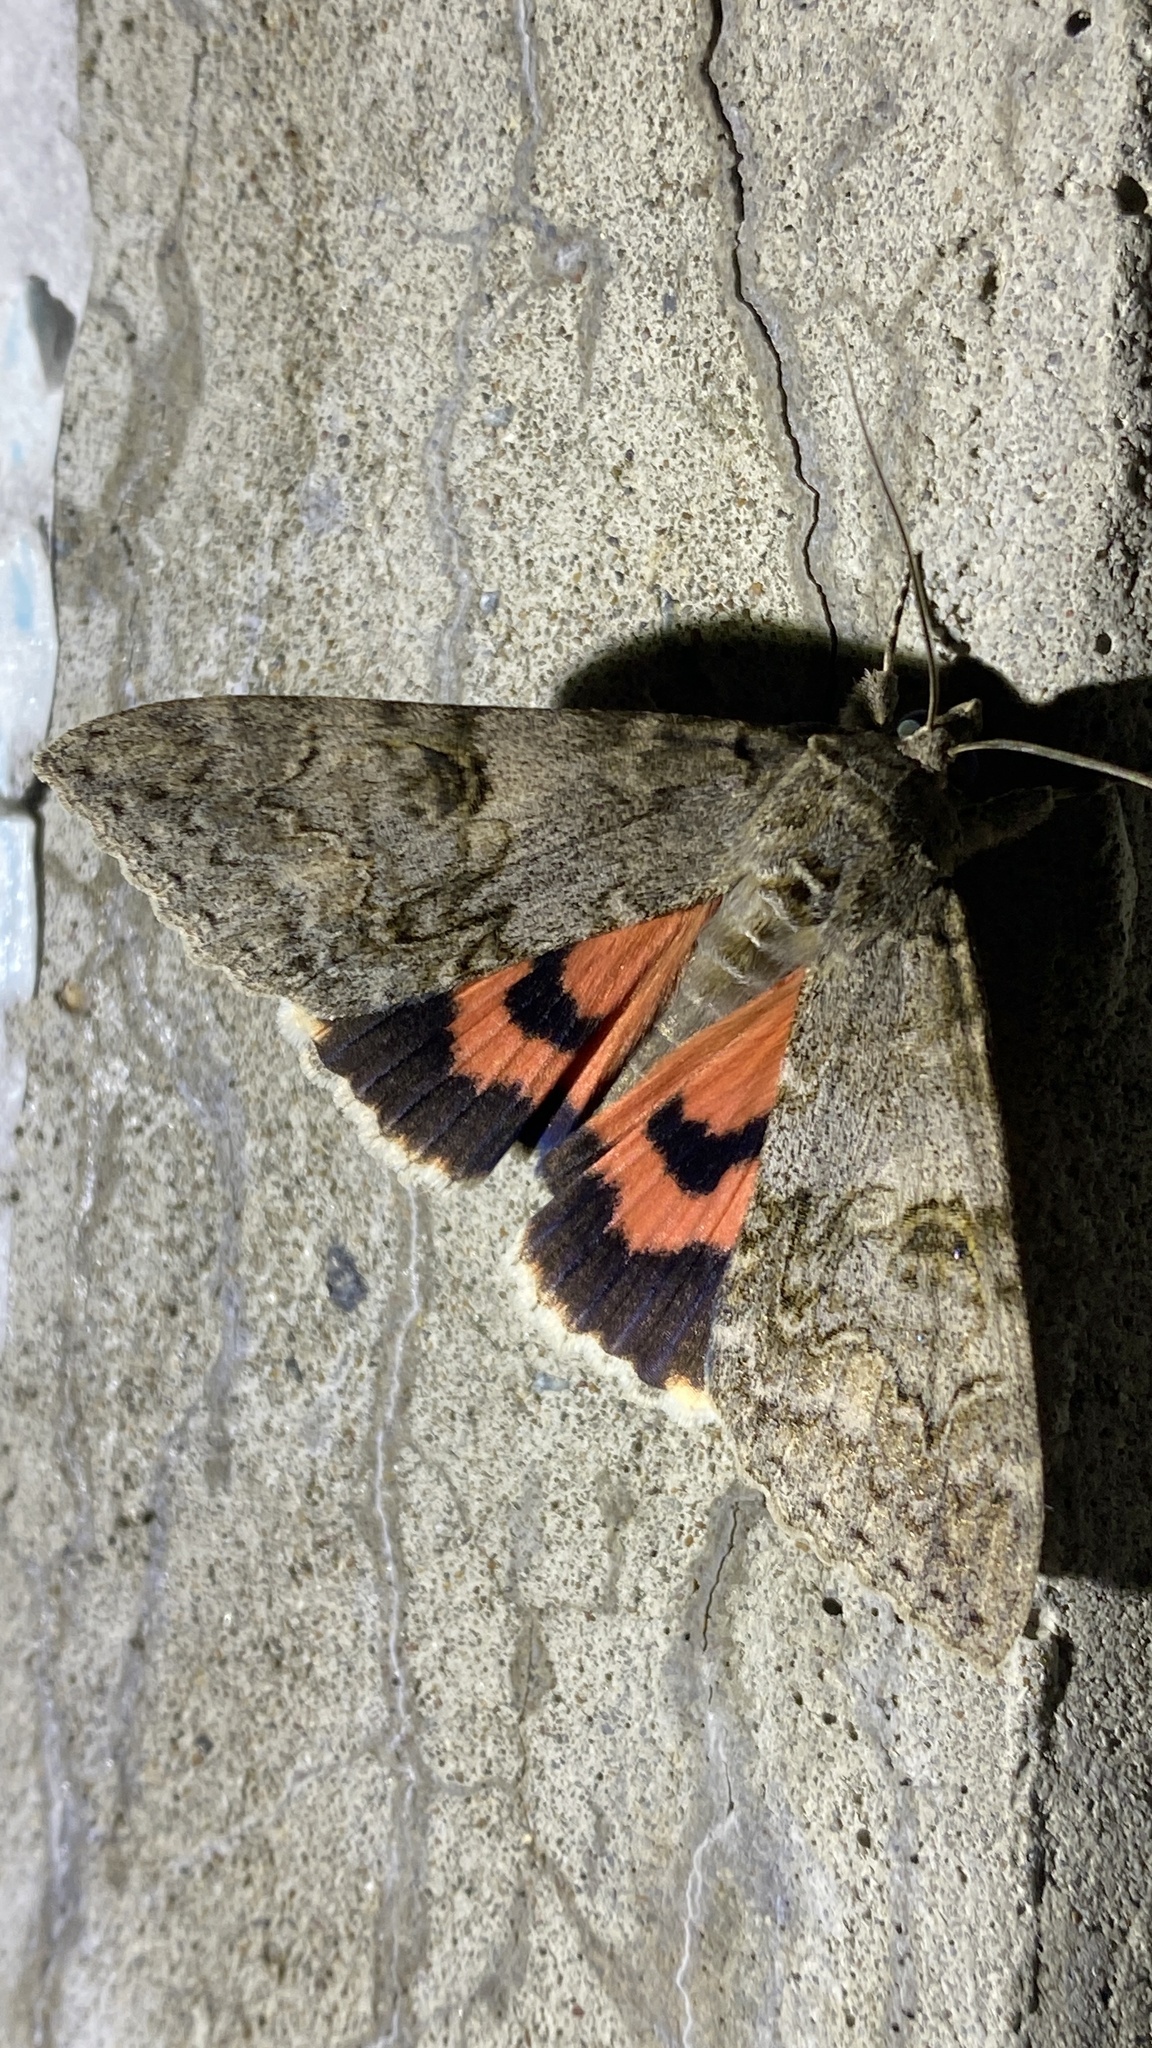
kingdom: Animalia
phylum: Arthropoda
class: Insecta
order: Lepidoptera
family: Erebidae
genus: Catocala
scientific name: Catocala nupta
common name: Red underwing
